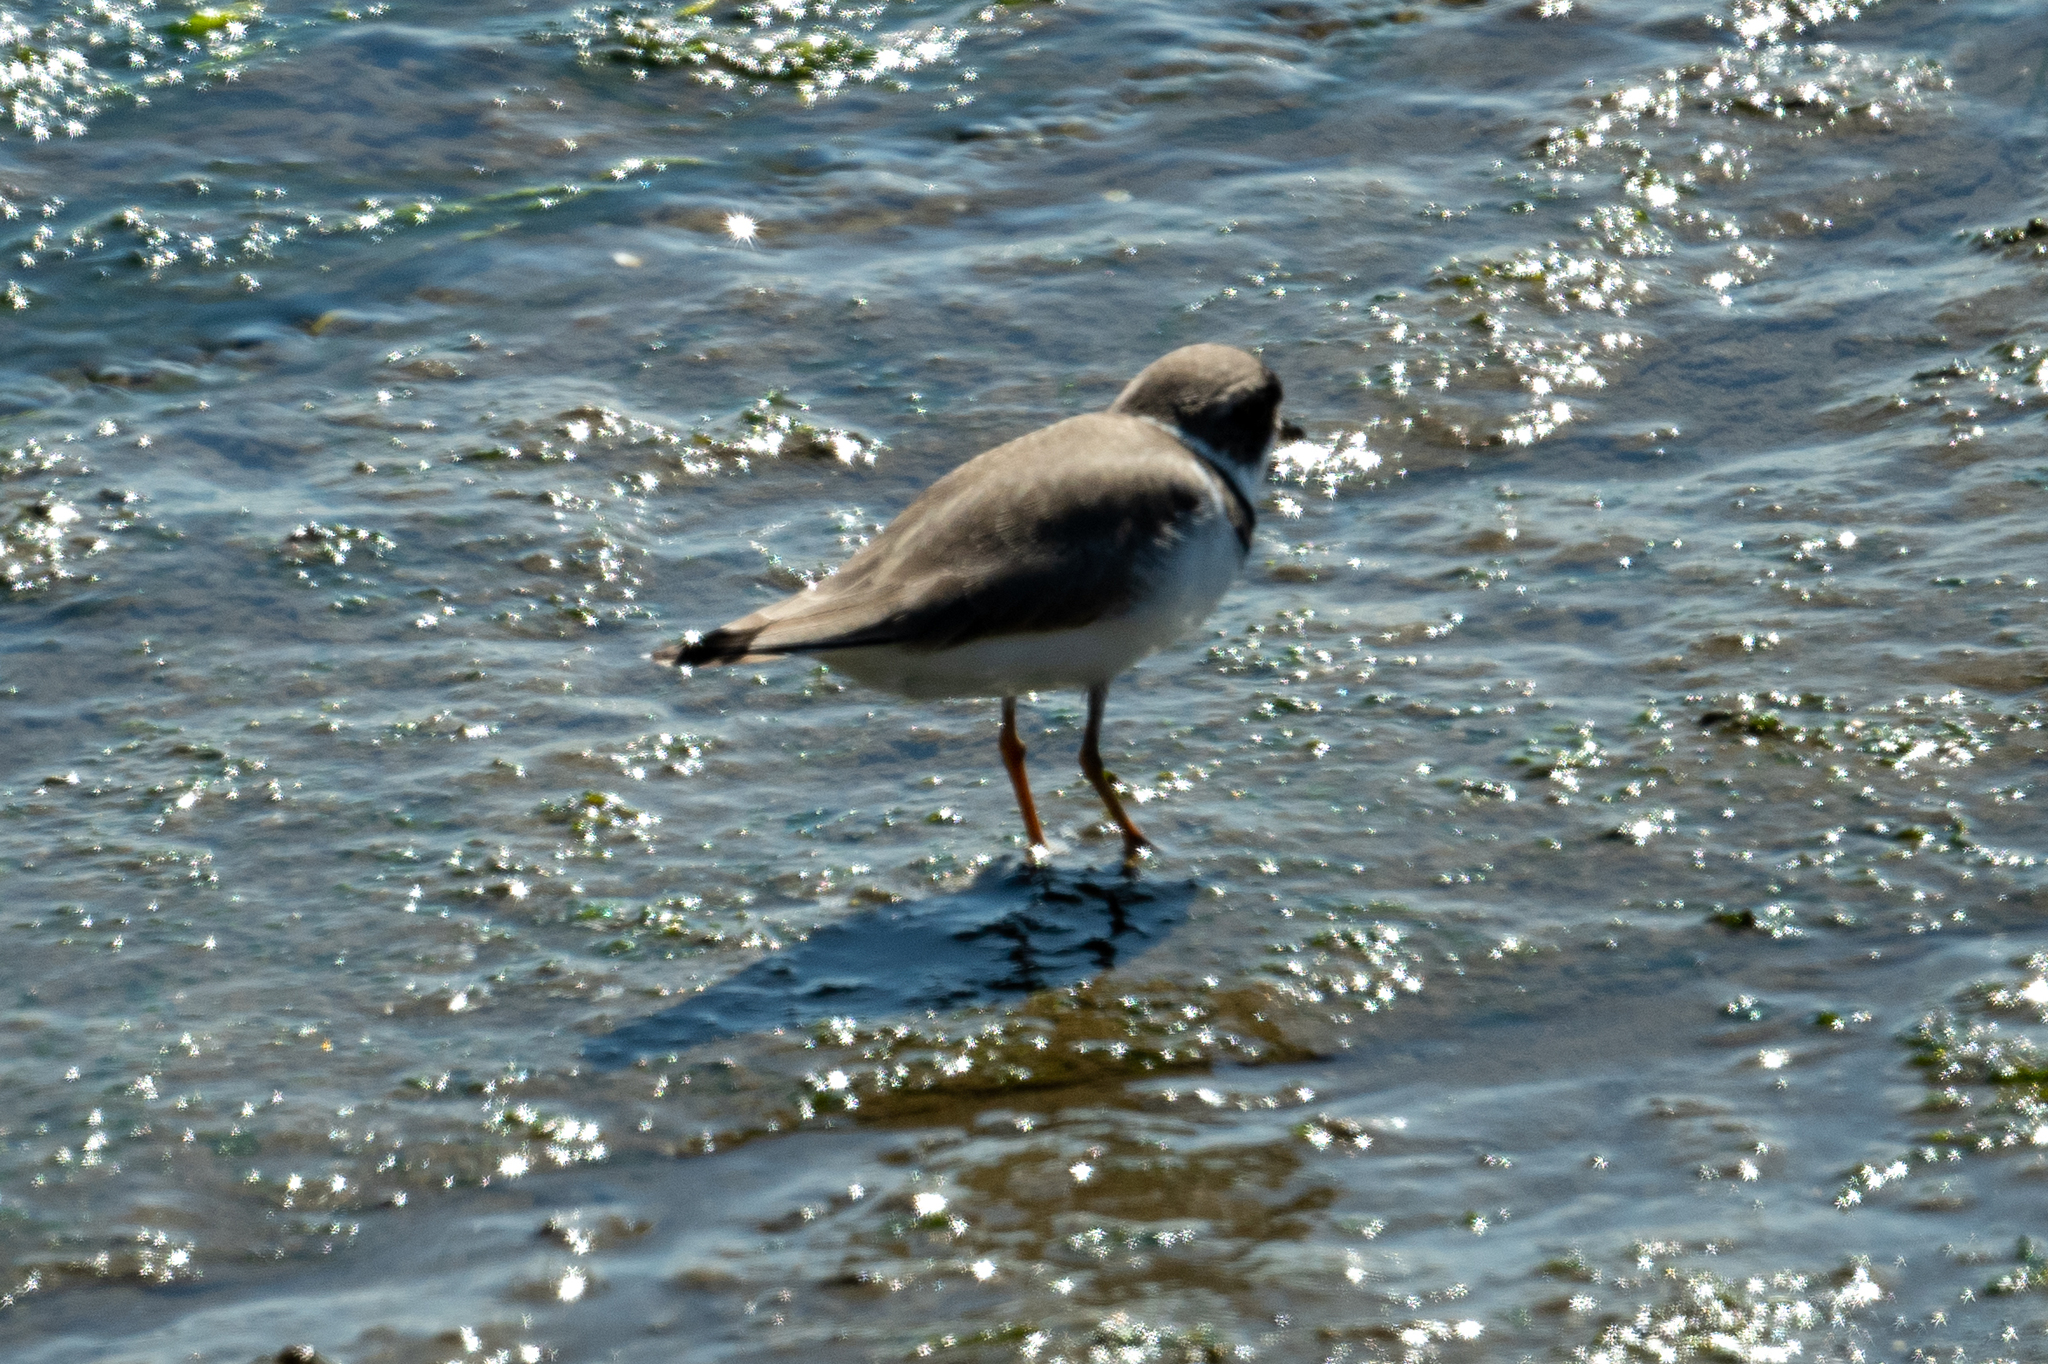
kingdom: Animalia
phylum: Chordata
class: Aves
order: Charadriiformes
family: Charadriidae
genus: Charadrius
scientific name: Charadrius semipalmatus
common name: Semipalmated plover
